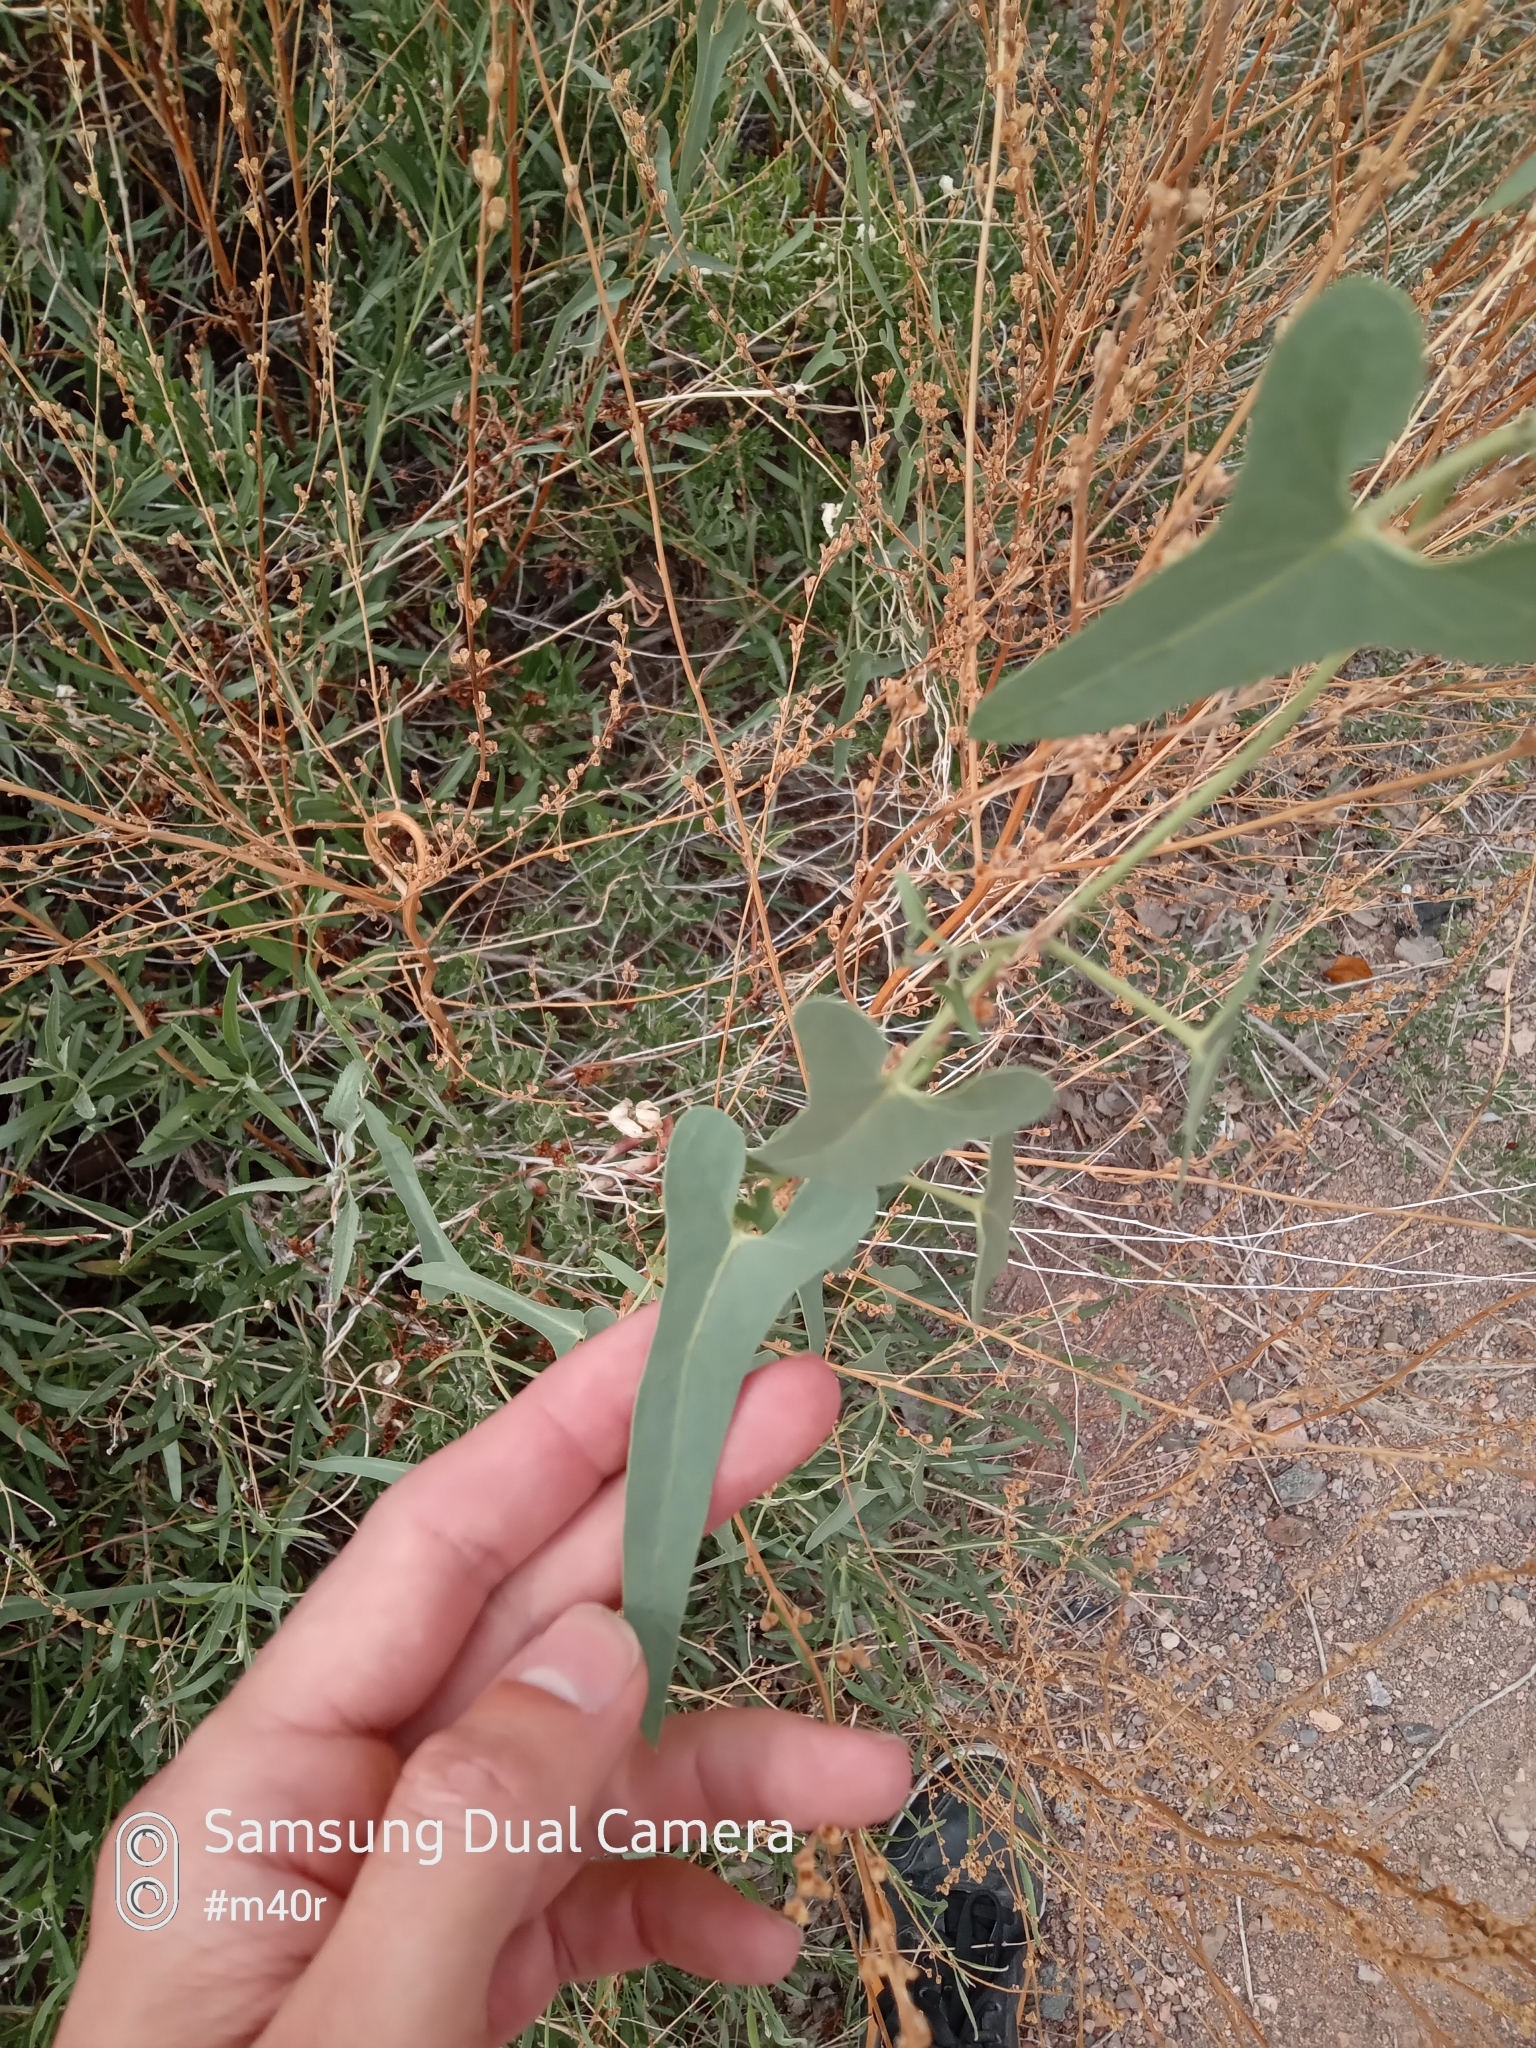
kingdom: Plantae
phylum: Tracheophyta
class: Magnoliopsida
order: Gentianales
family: Apocynaceae
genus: Cynanchum
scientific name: Cynanchum acutum
